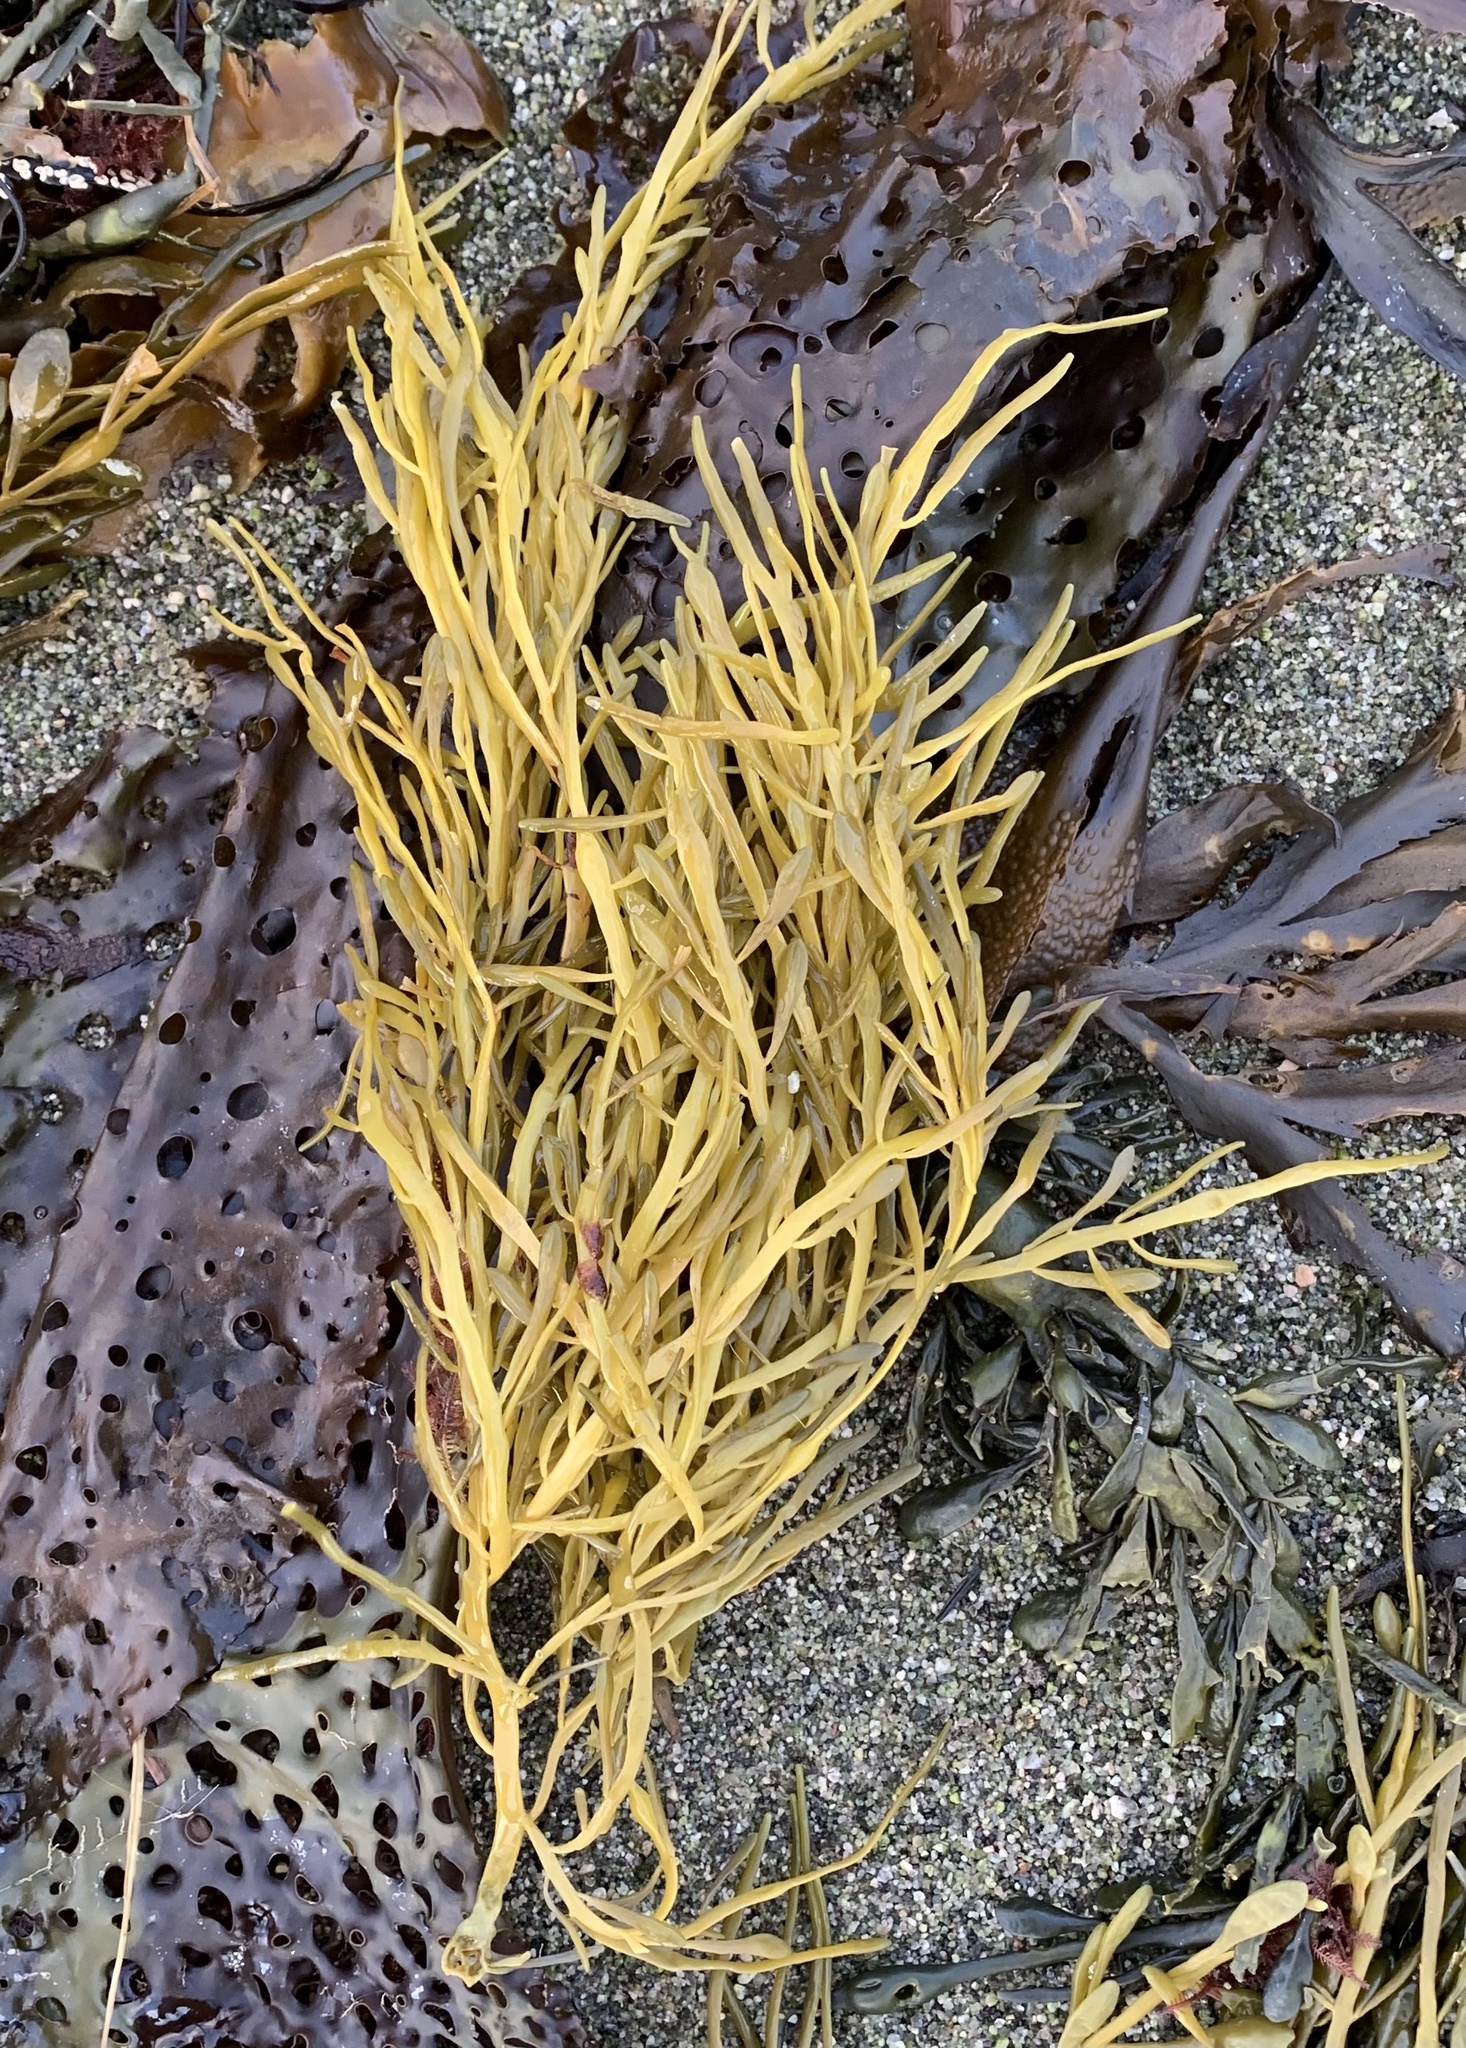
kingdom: Chromista
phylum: Ochrophyta
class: Phaeophyceae
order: Fucales
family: Fucaceae
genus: Ascophyllum
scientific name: Ascophyllum nodosum
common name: Knotted wrack
